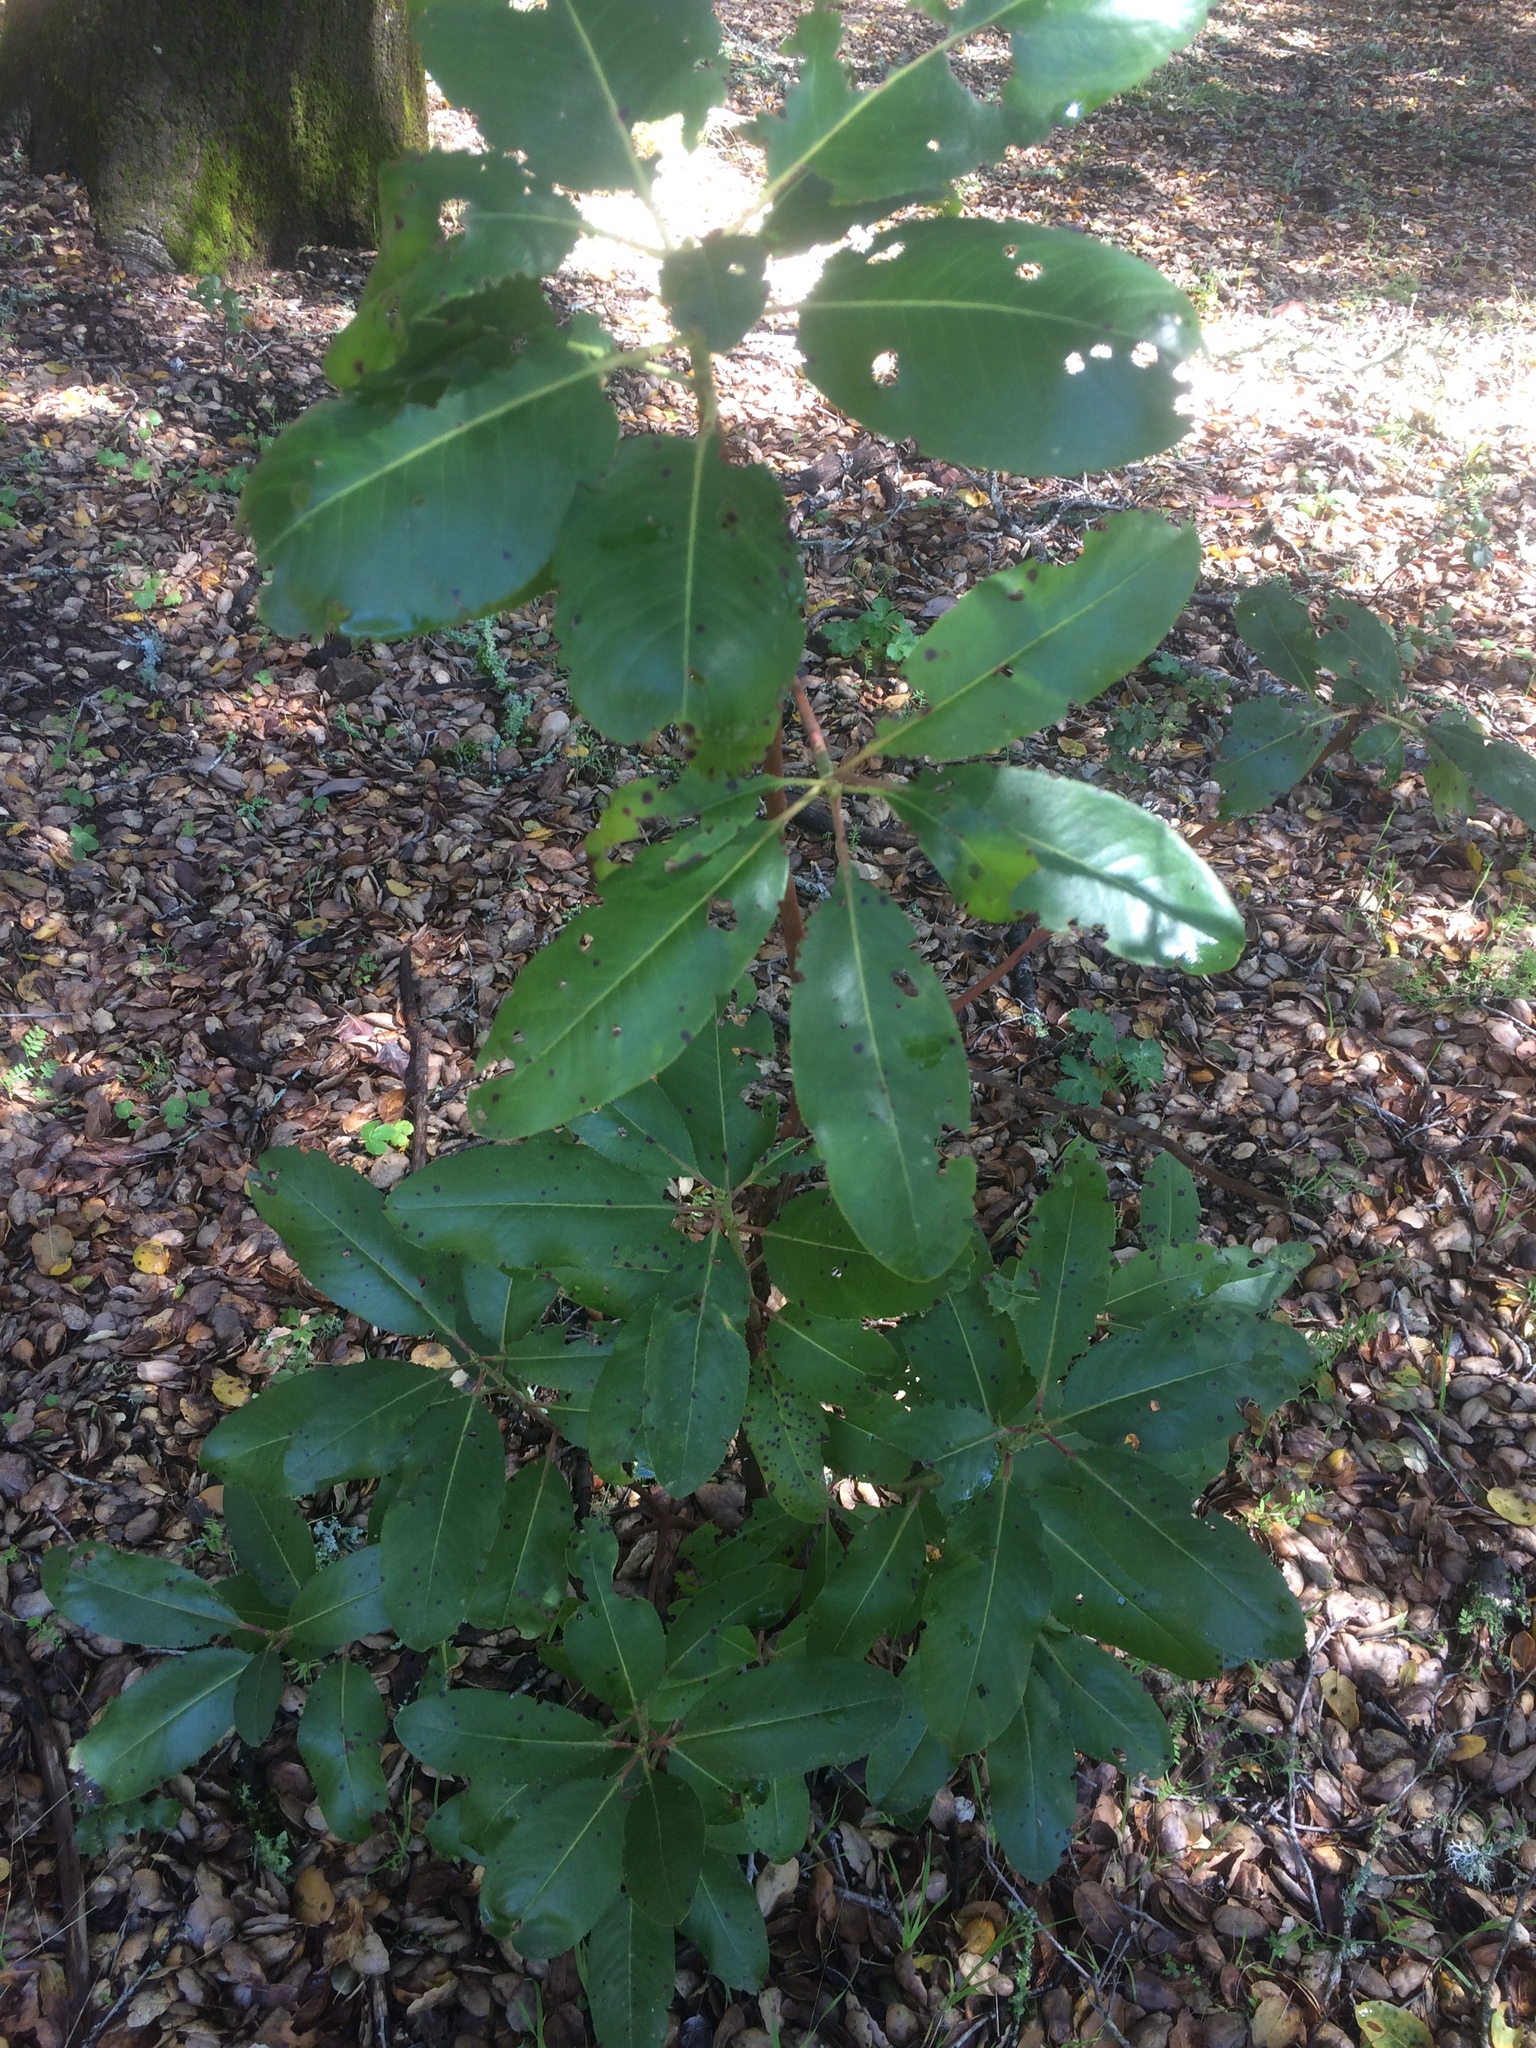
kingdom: Plantae
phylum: Tracheophyta
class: Magnoliopsida
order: Ericales
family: Ericaceae
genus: Arbutus
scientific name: Arbutus menziesii
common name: Pacific madrone
